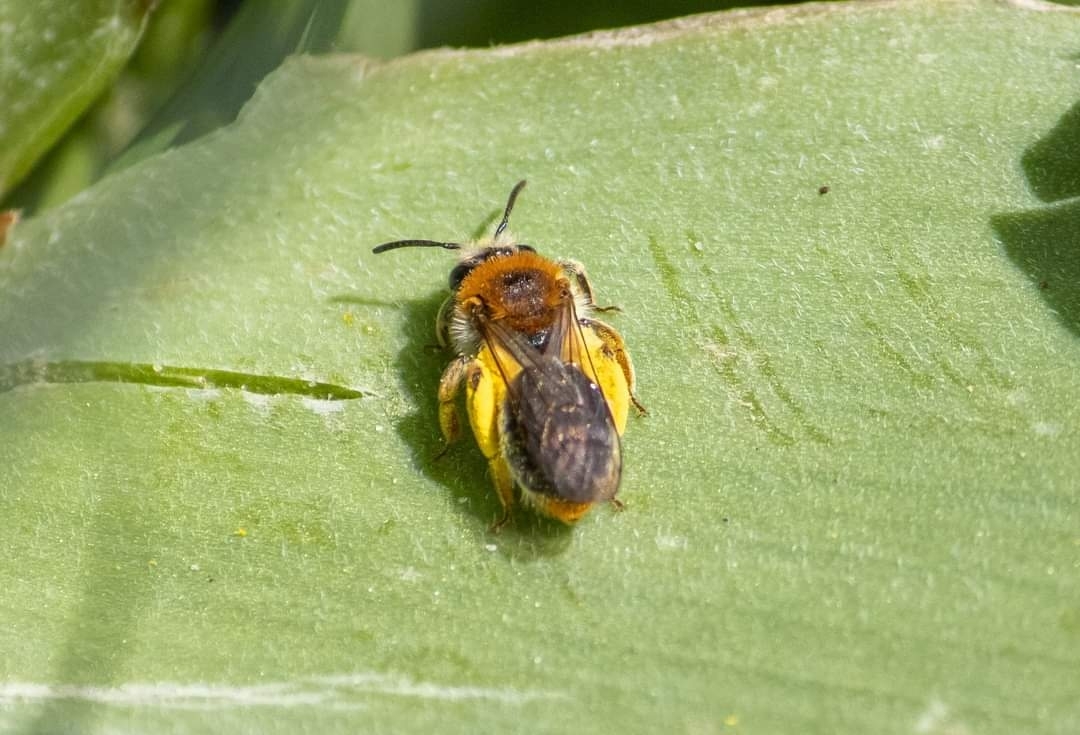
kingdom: Animalia
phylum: Arthropoda
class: Insecta
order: Hymenoptera
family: Andrenidae
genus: Andrena
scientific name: Andrena haemorrhoa
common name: Early mining bee
